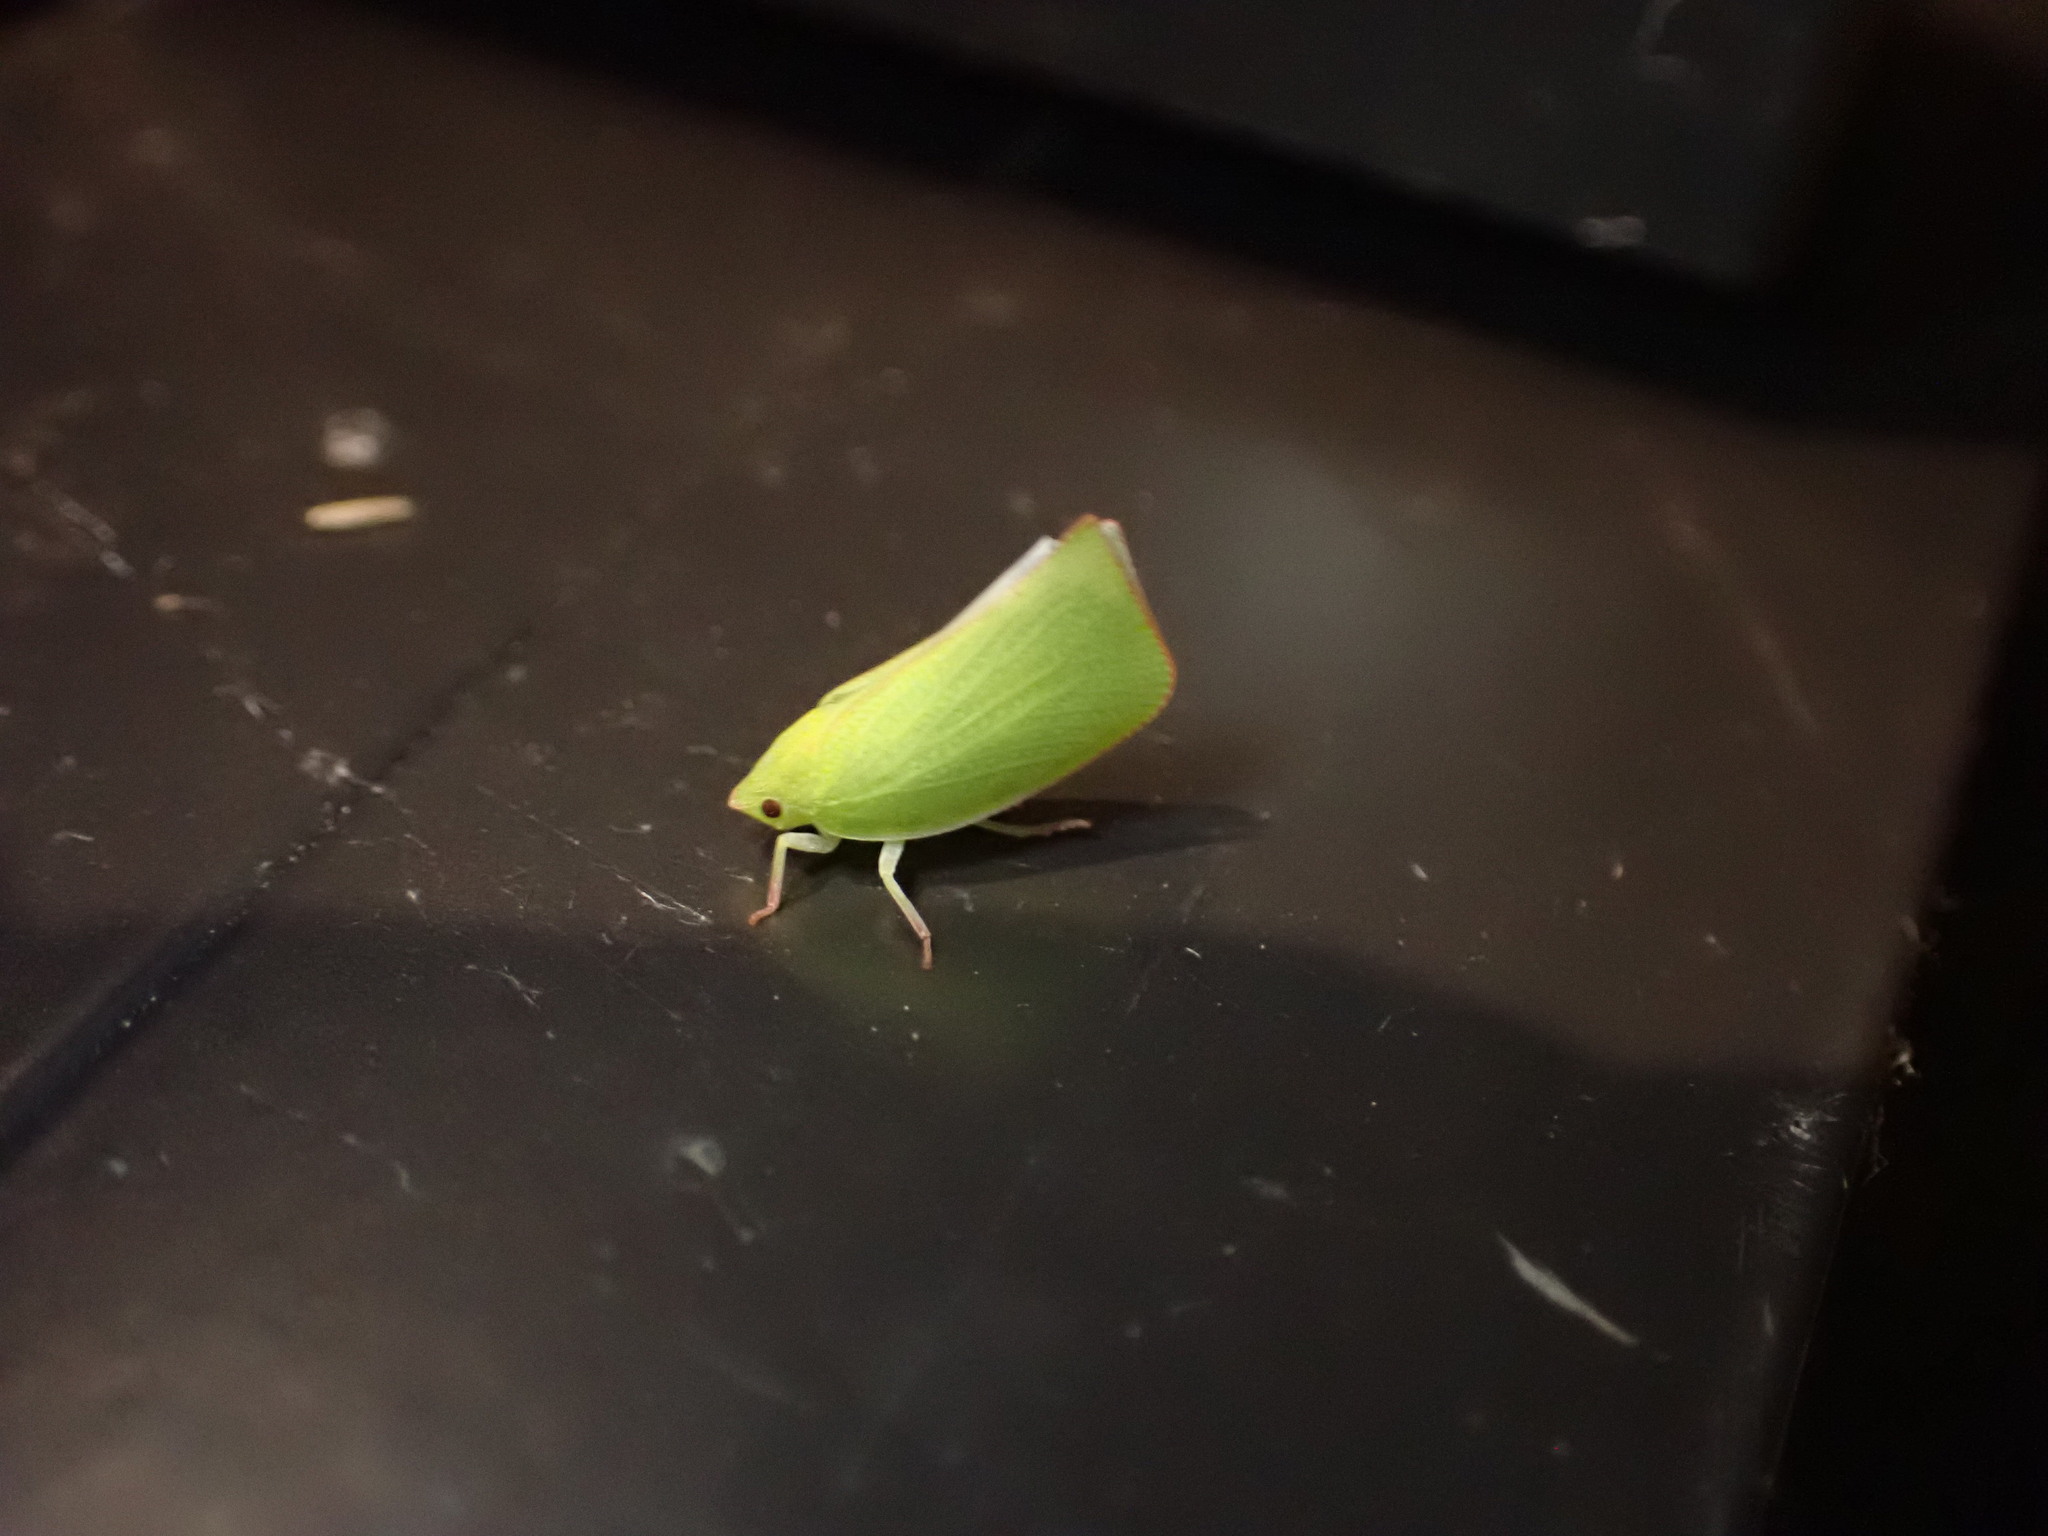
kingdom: Animalia
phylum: Arthropoda
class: Insecta
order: Hemiptera
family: Flatidae
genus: Siphanta
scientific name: Siphanta acuta
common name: Torpedo bug
